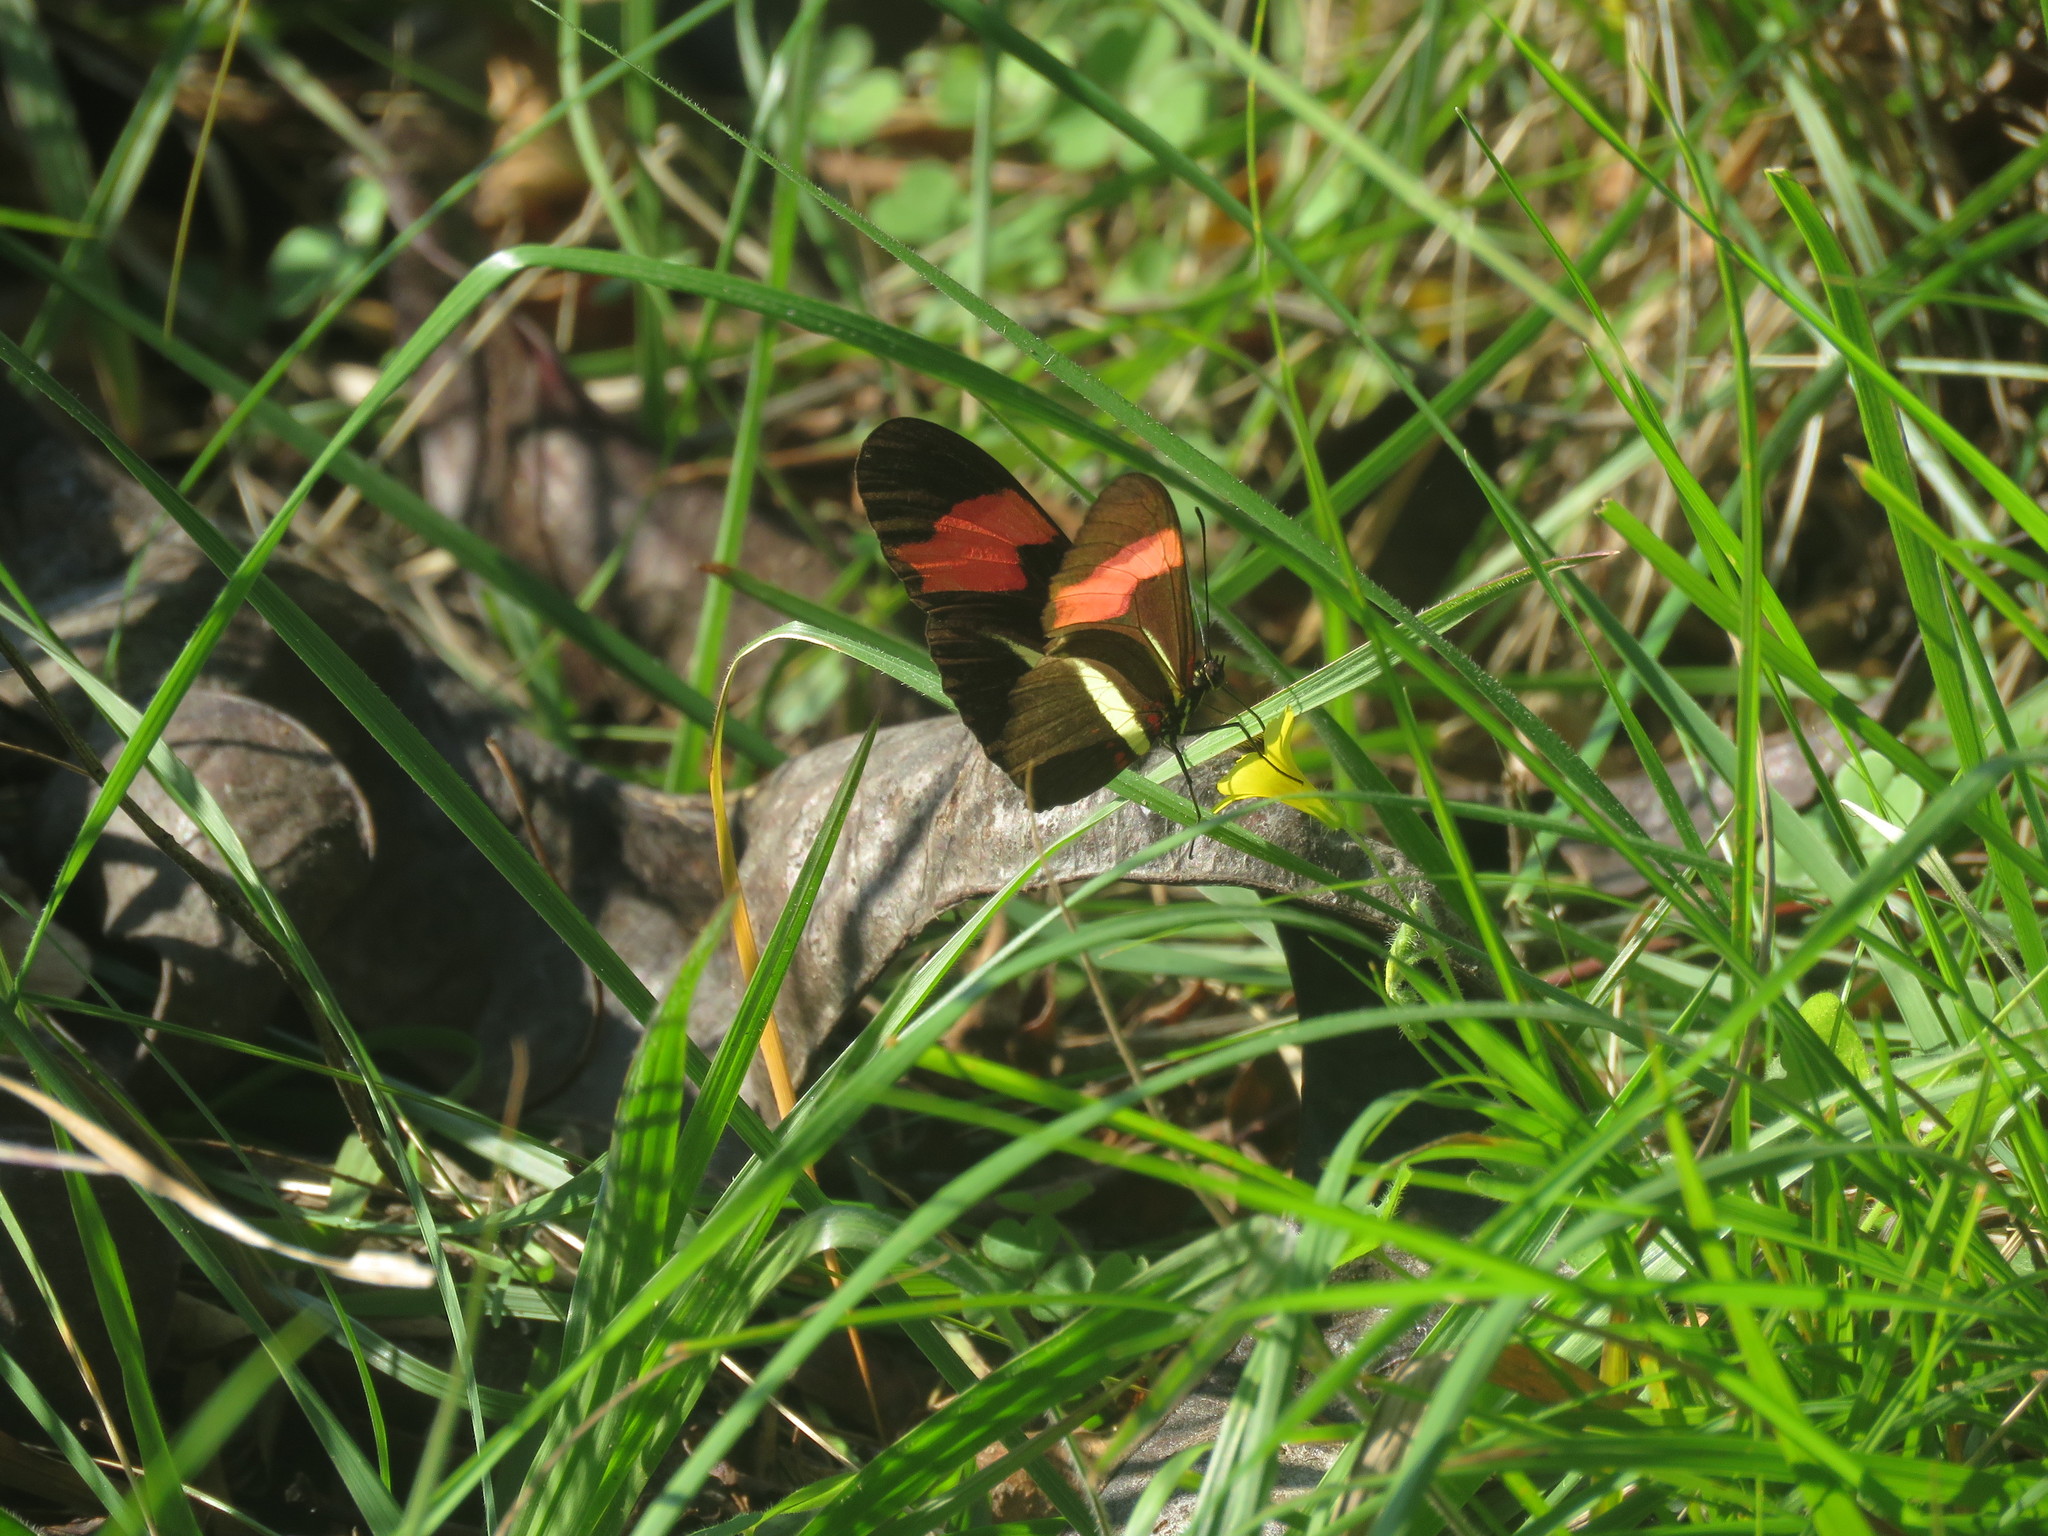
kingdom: Animalia
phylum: Arthropoda
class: Insecta
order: Lepidoptera
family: Nymphalidae
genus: Heliconius
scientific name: Heliconius erato
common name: Common patch longwing
